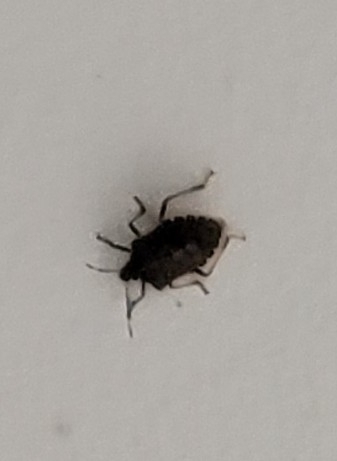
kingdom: Animalia
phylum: Arthropoda
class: Insecta
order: Hemiptera
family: Pentatomidae
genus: Halyomorpha
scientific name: Halyomorpha halys
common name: Brown marmorated stink bug
